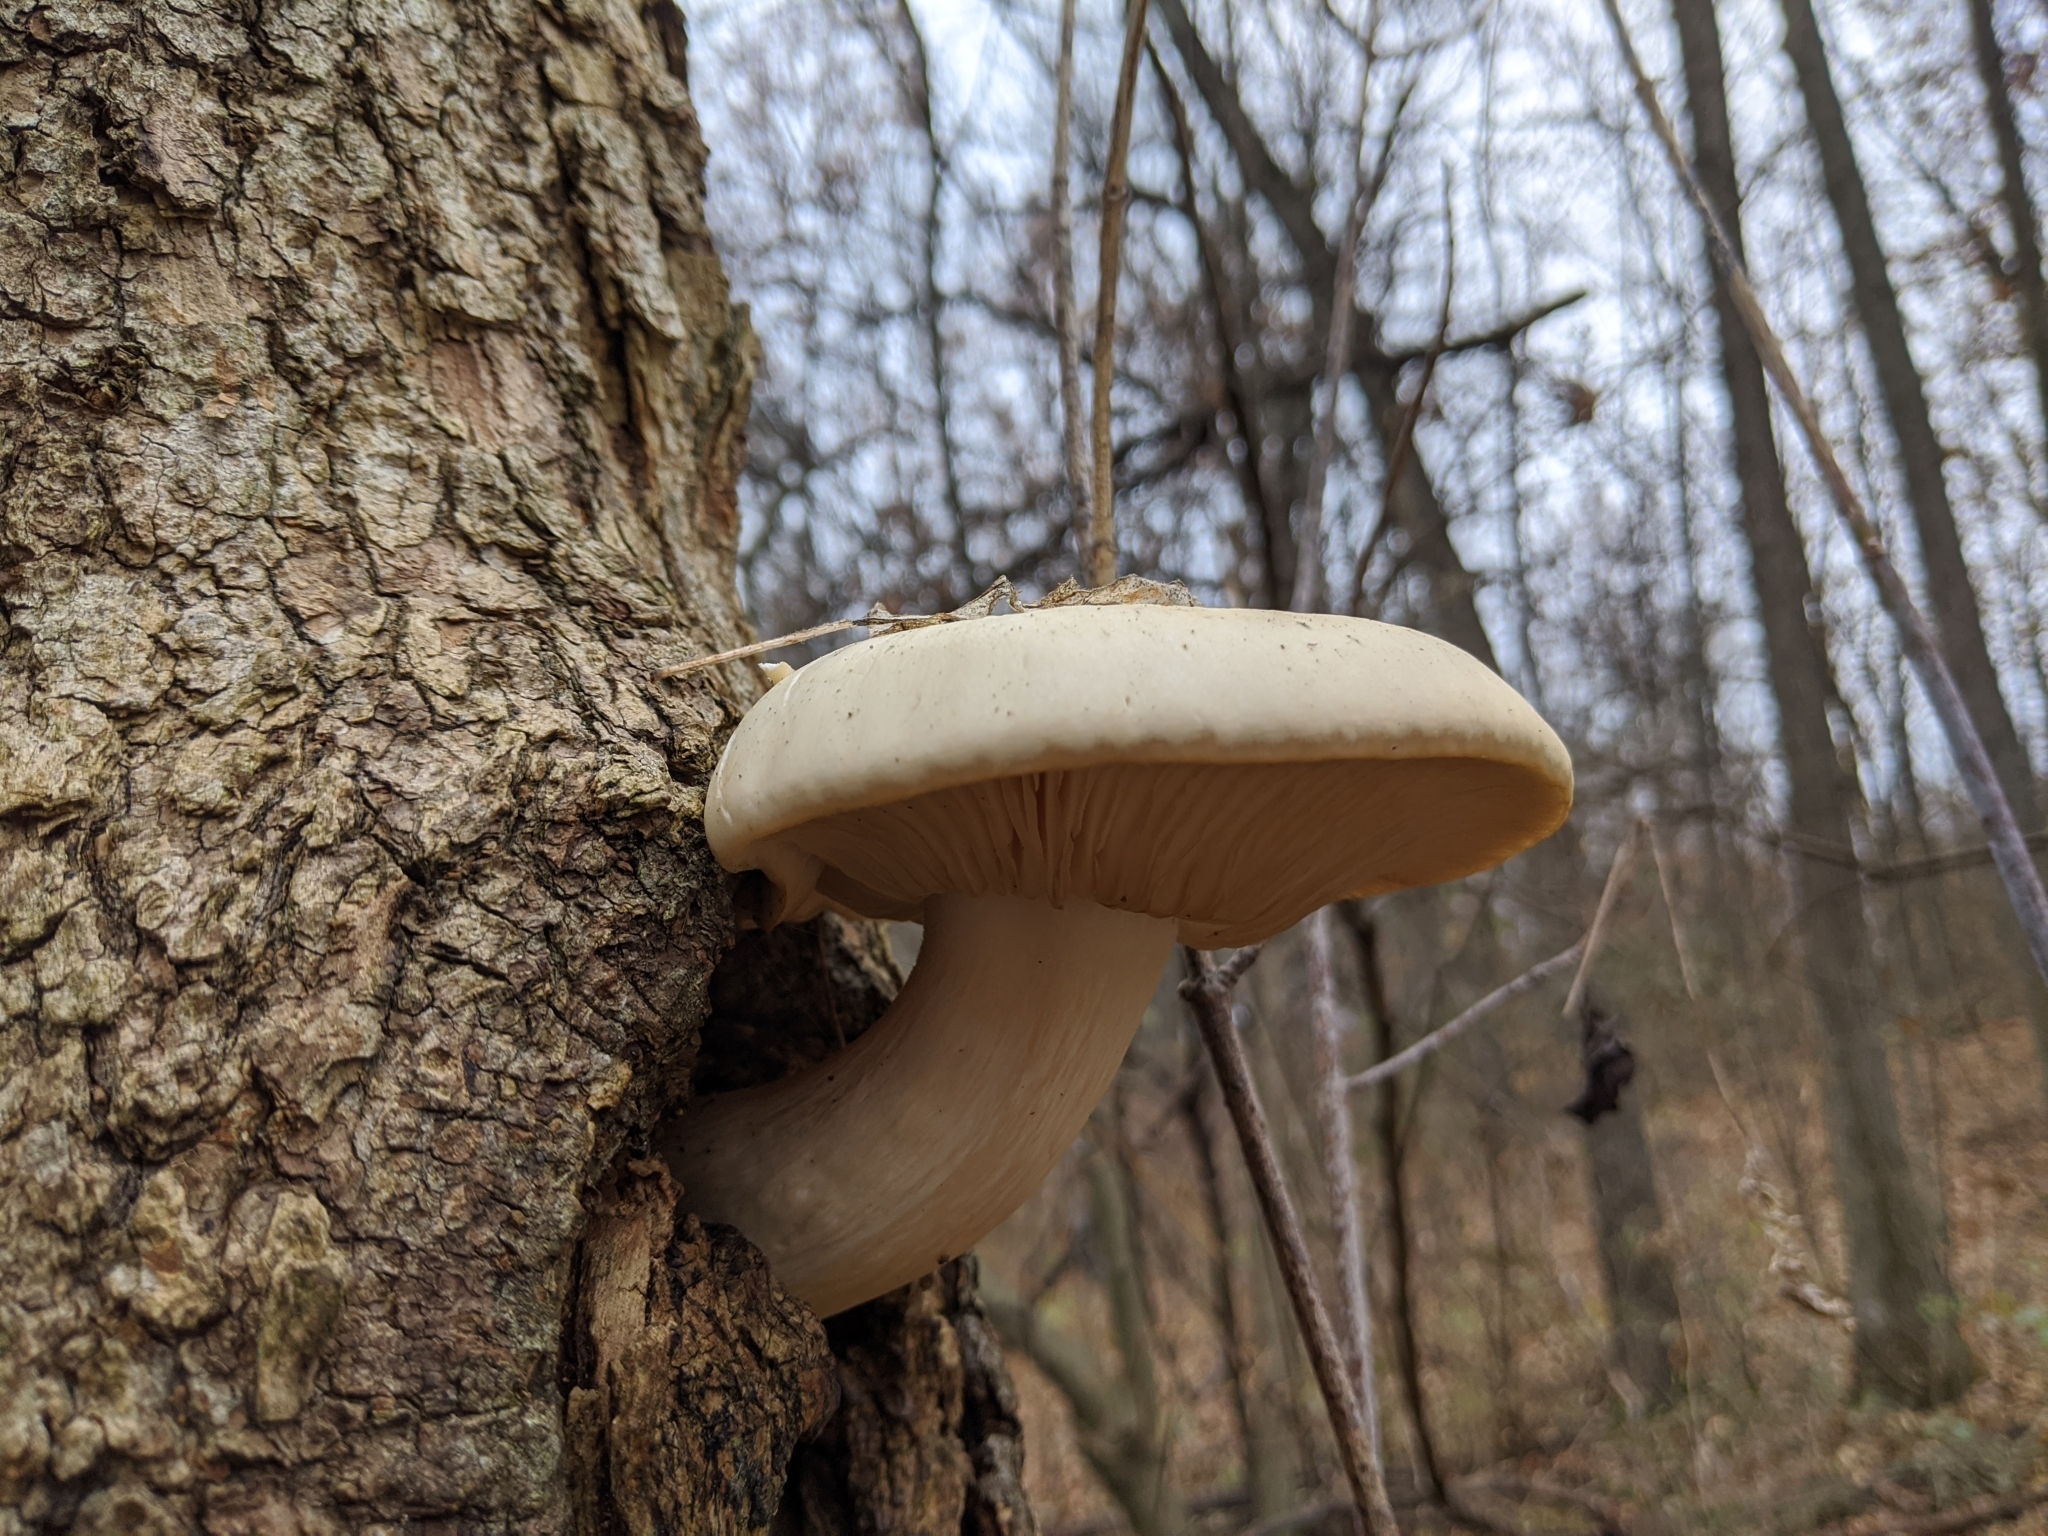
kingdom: Fungi
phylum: Basidiomycota
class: Agaricomycetes
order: Agaricales
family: Lyophyllaceae
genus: Hypsizygus
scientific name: Hypsizygus ulmarius
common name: Elm leech
